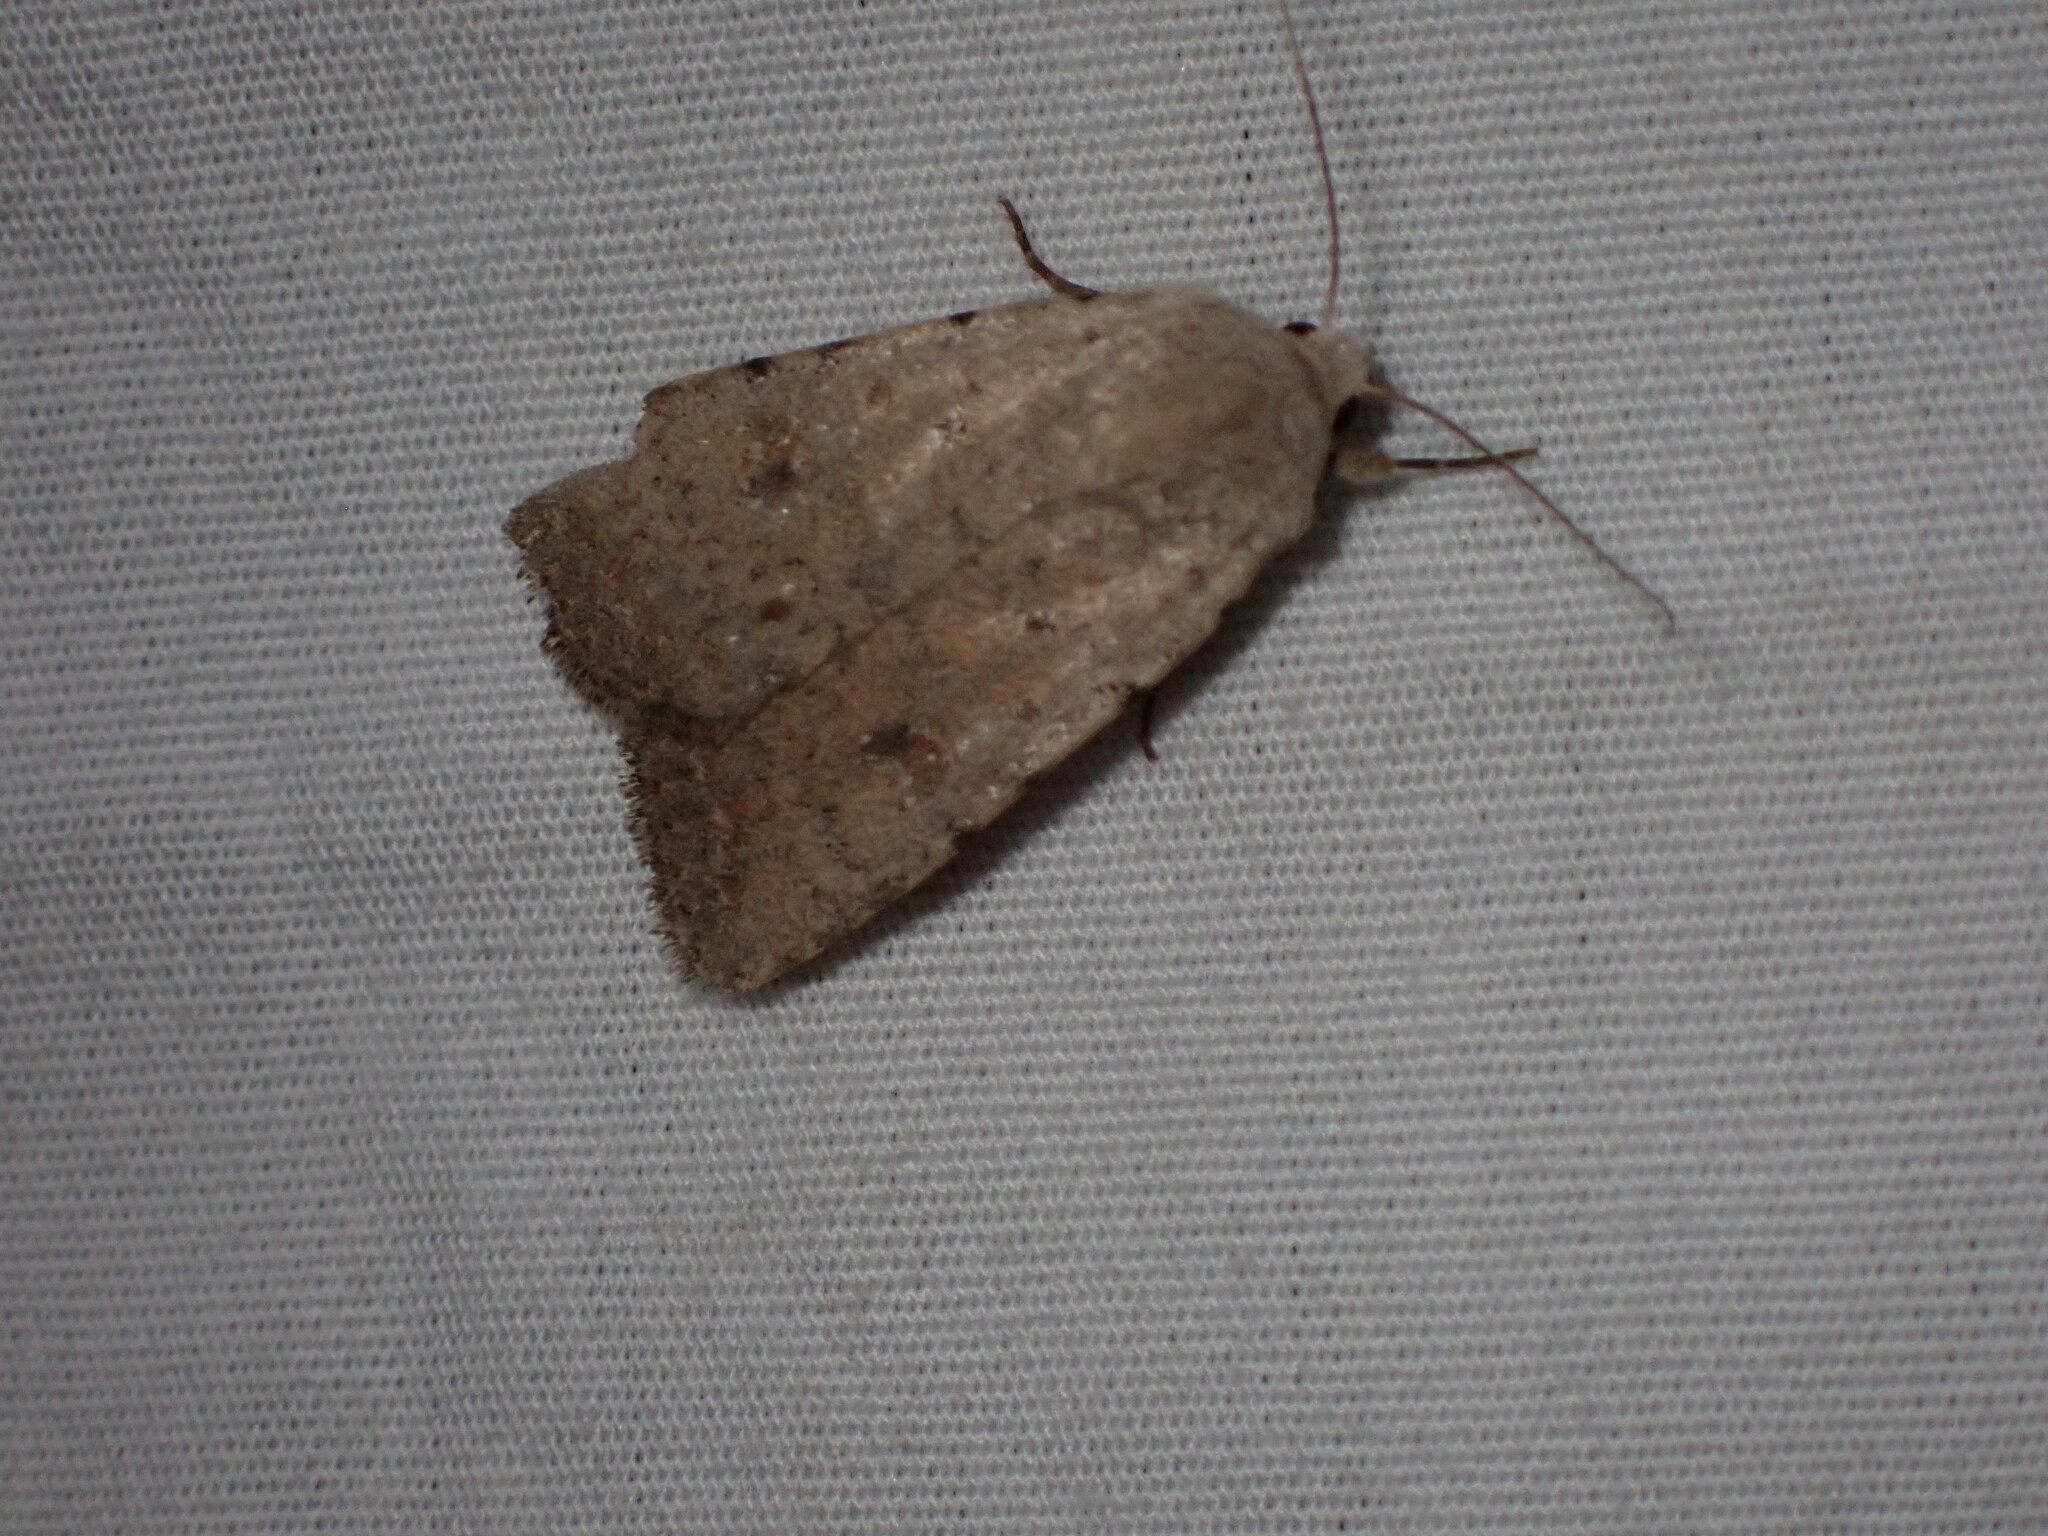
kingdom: Animalia
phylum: Arthropoda
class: Insecta
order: Lepidoptera
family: Noctuidae
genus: Caradrina
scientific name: Caradrina montana
